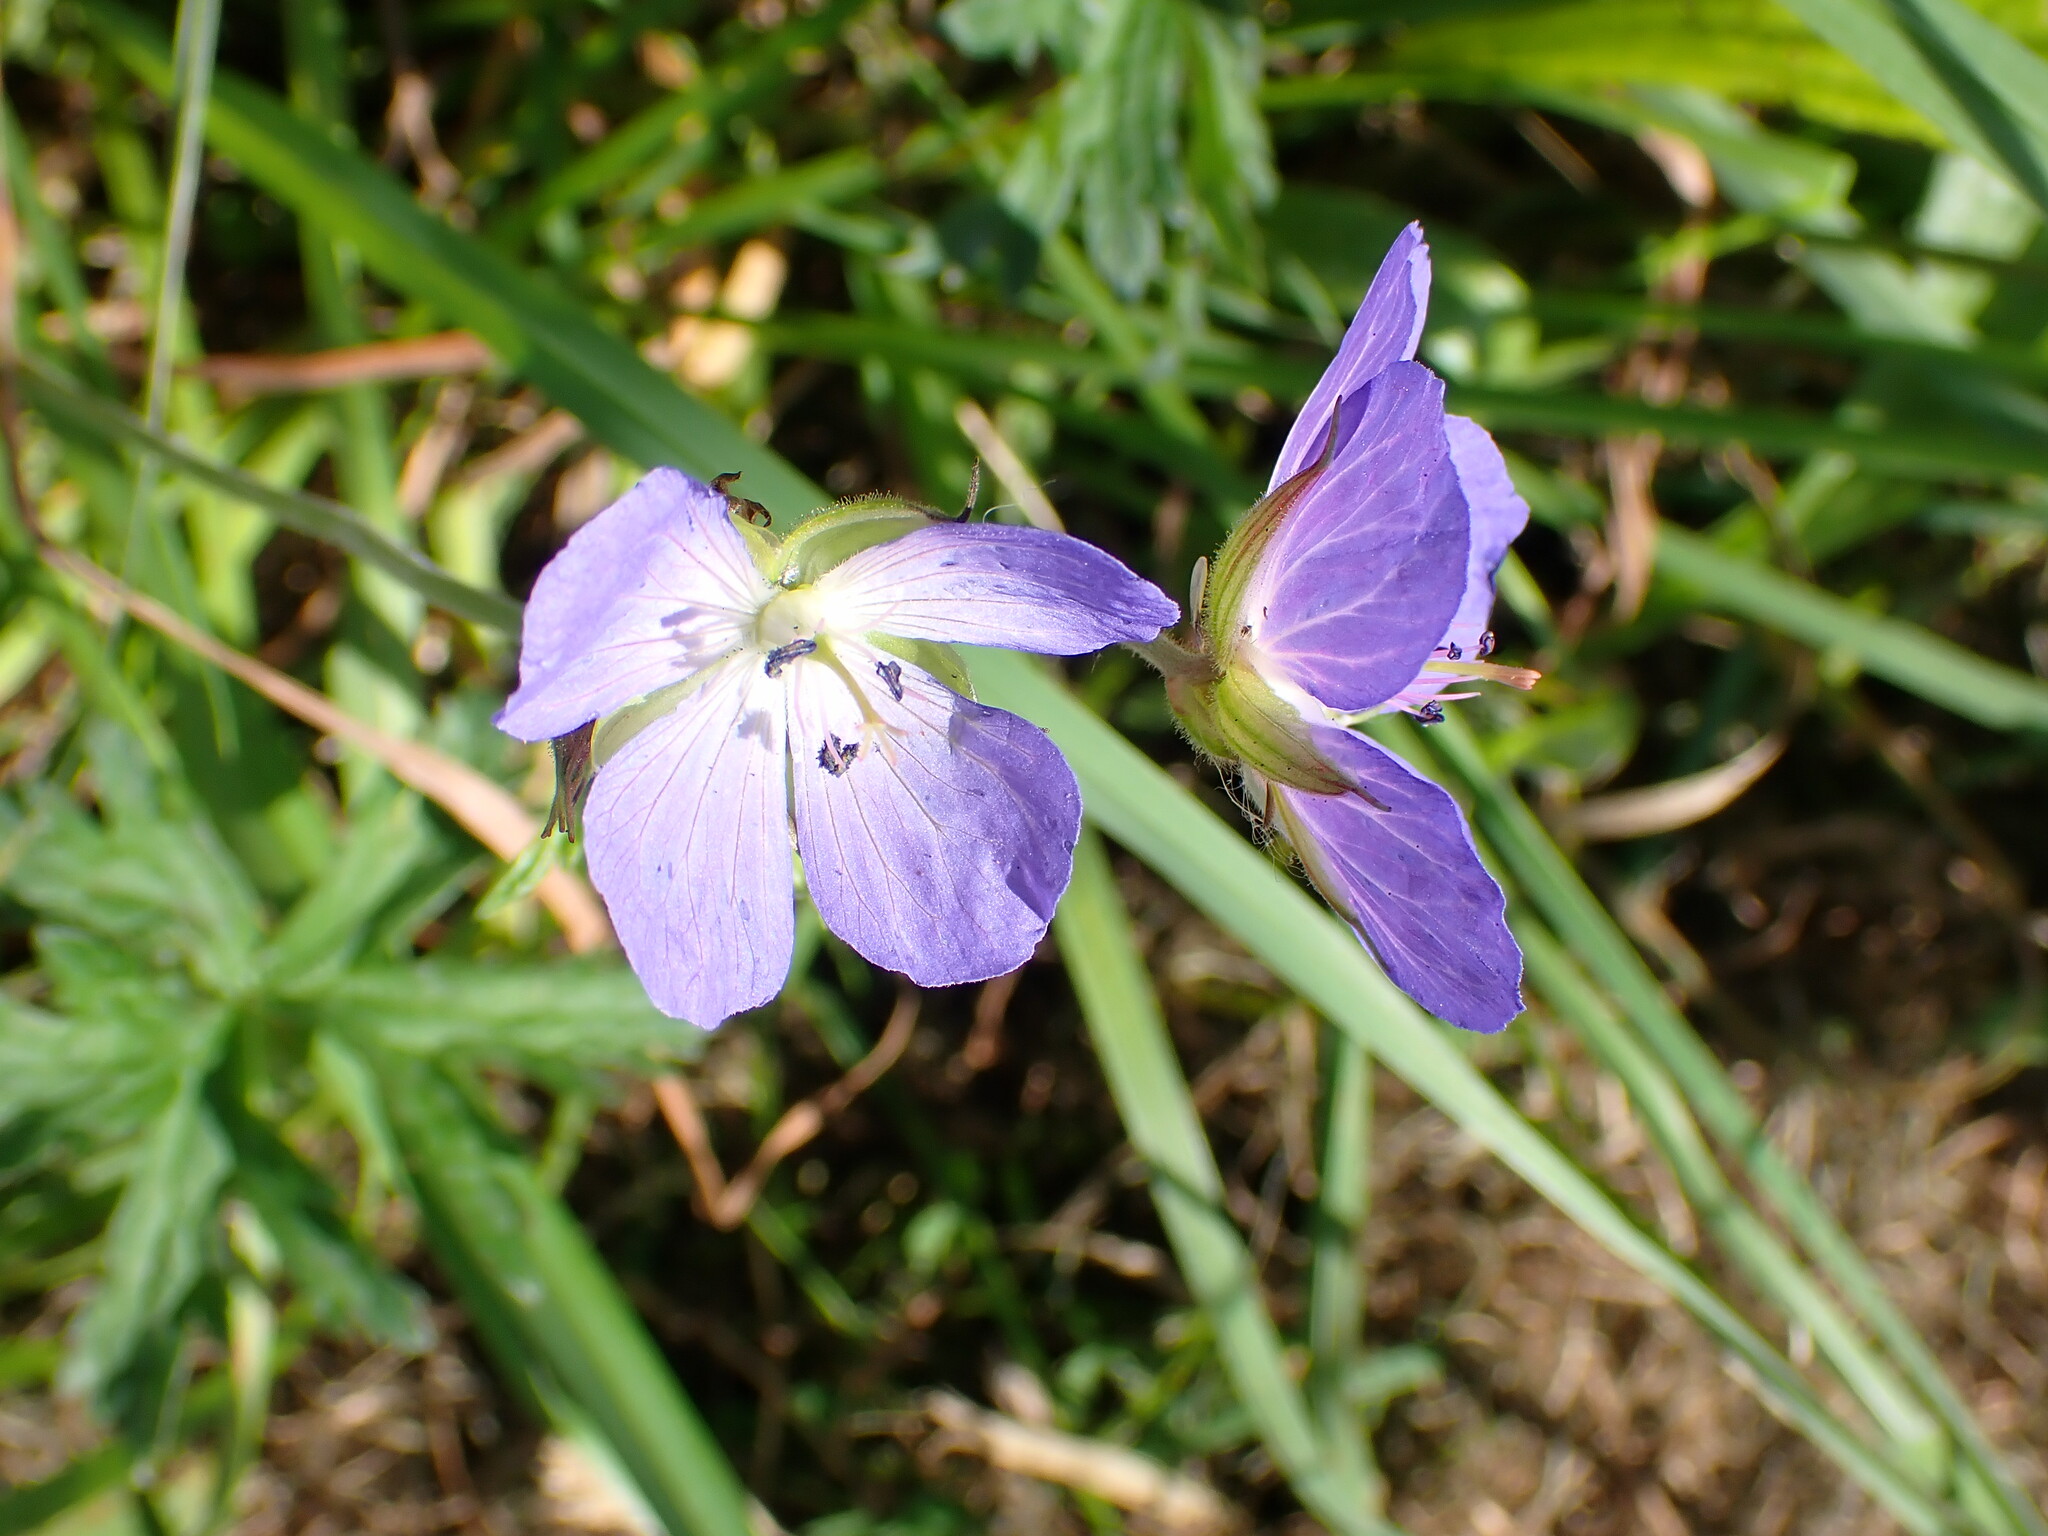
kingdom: Plantae
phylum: Tracheophyta
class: Magnoliopsida
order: Geraniales
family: Geraniaceae
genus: Geranium
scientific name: Geranium pratense
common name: Meadow crane's-bill
